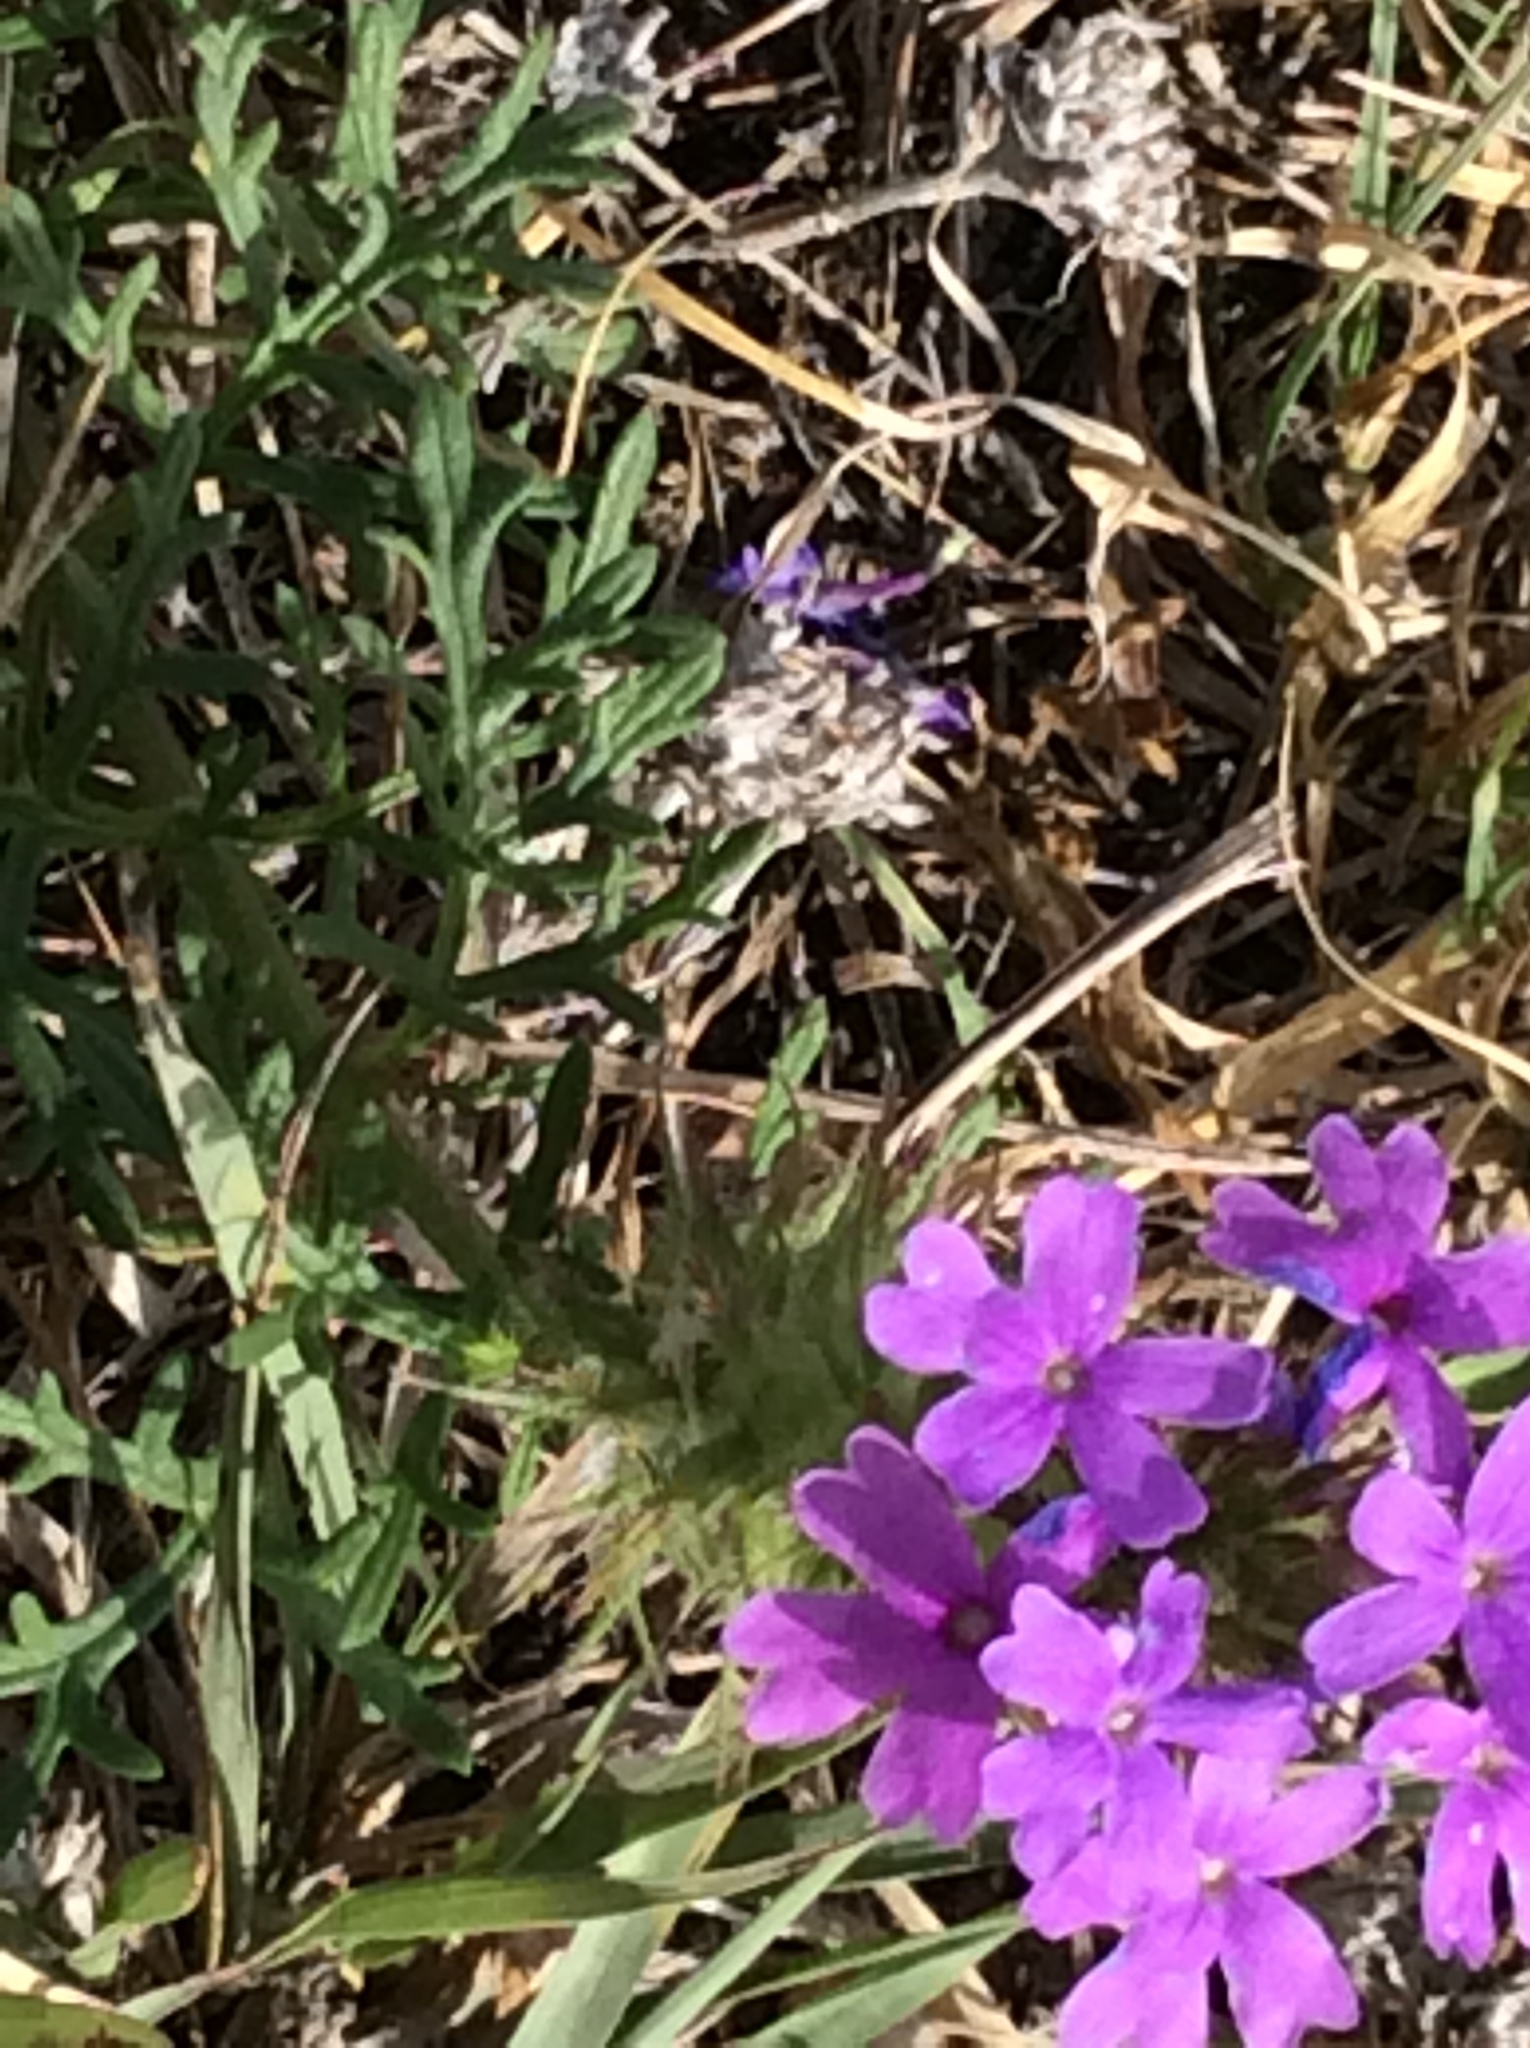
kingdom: Plantae
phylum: Tracheophyta
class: Magnoliopsida
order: Lamiales
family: Verbenaceae
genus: Verbena
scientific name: Verbena bipinnatifida
